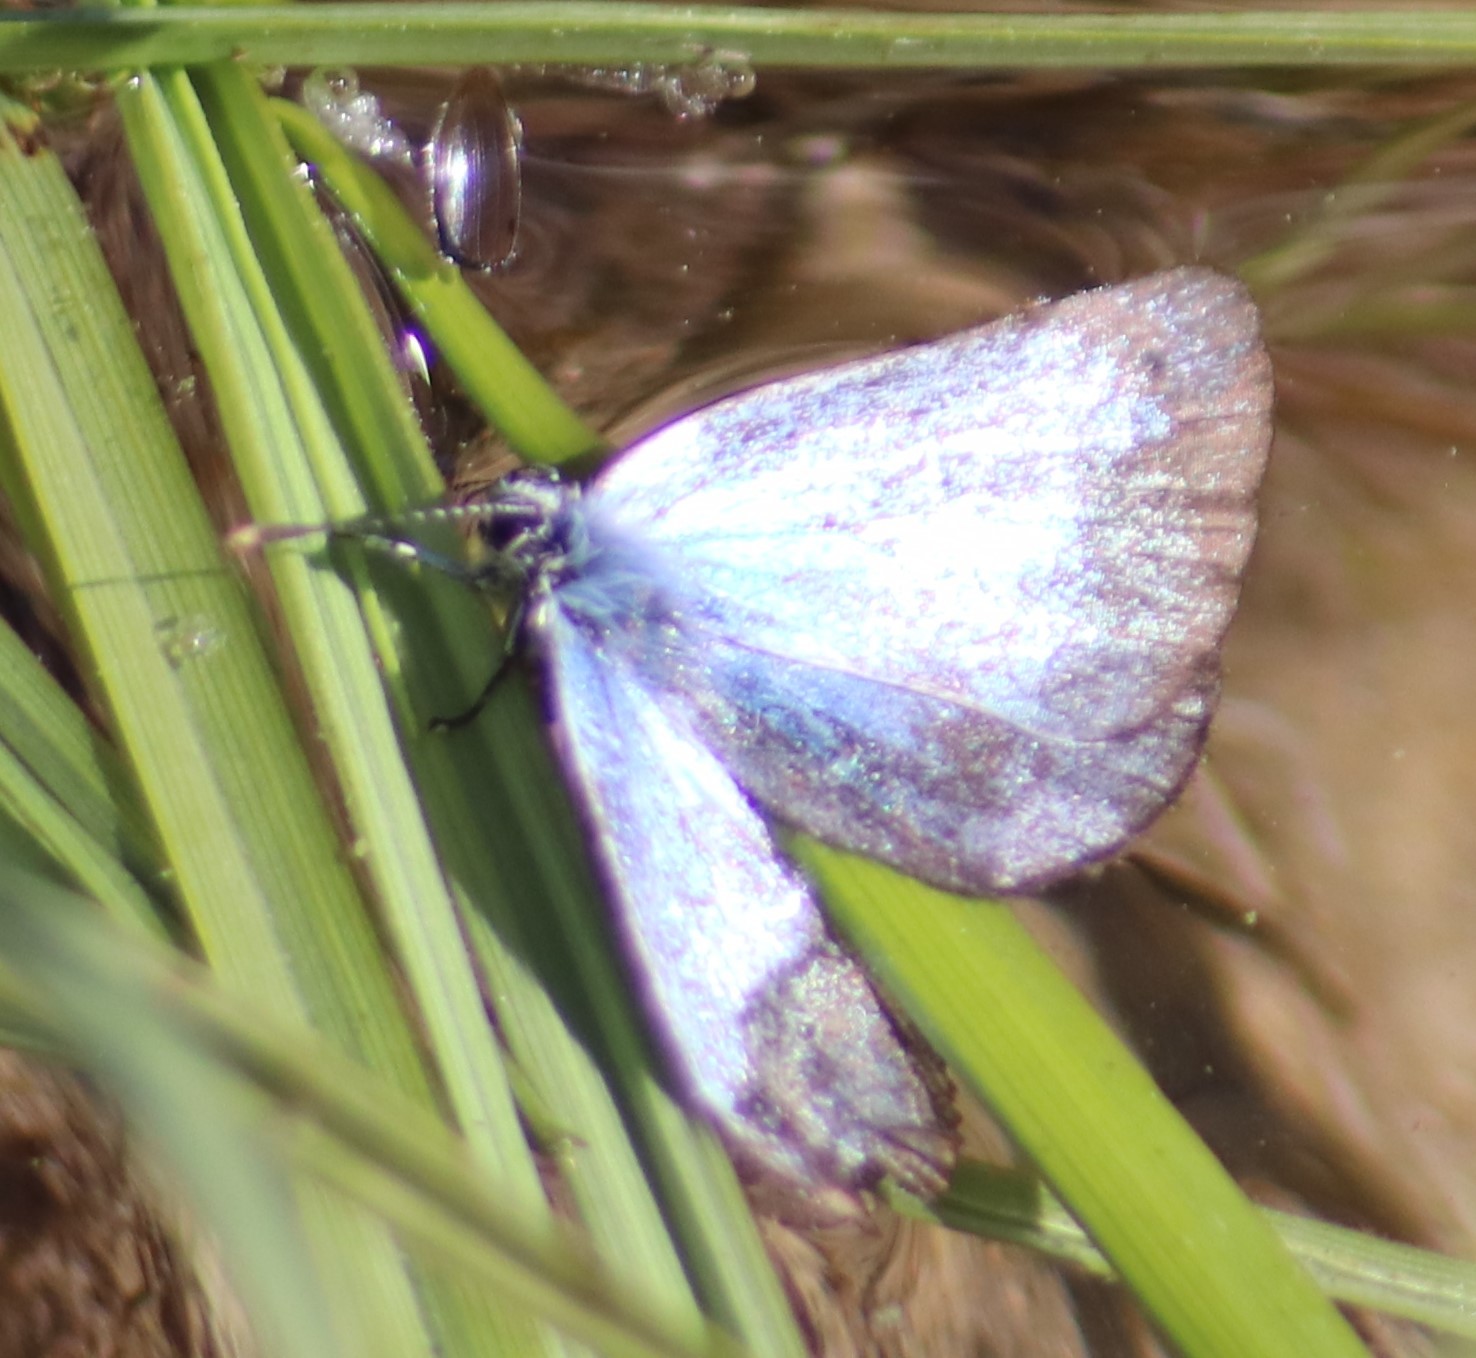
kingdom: Animalia
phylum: Arthropoda
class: Insecta
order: Lepidoptera
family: Lycaenidae
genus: Celastrina
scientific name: Celastrina lucia
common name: Lucia azure
